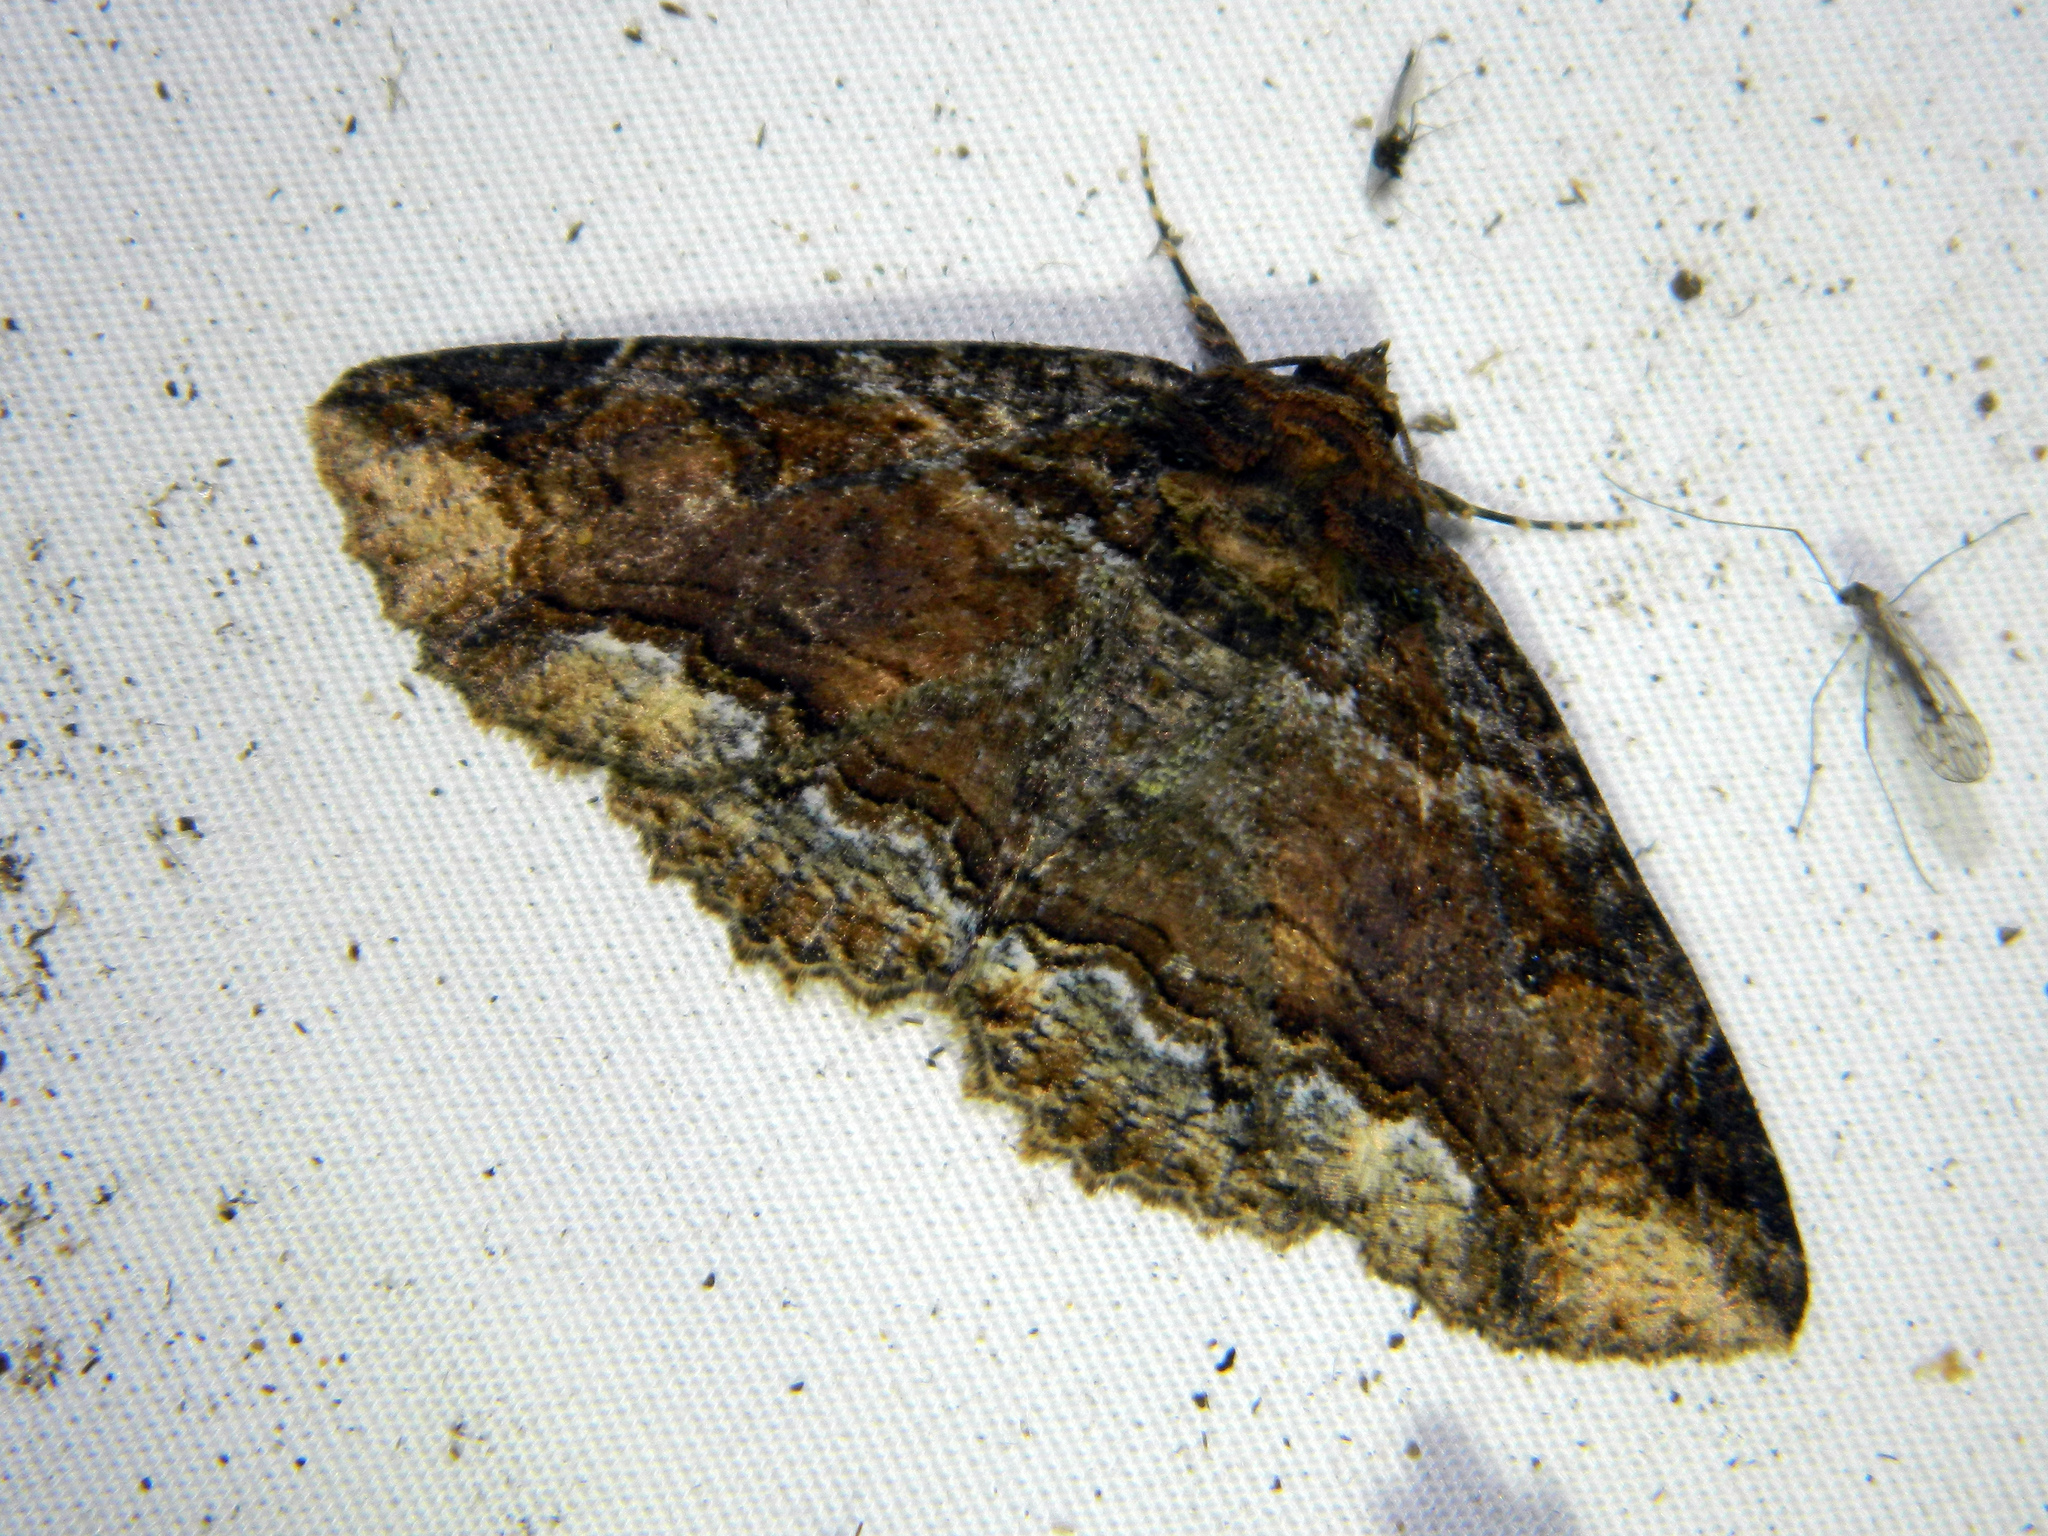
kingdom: Animalia
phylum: Arthropoda
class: Insecta
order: Lepidoptera
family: Erebidae
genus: Zale
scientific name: Zale minerea
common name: Colorful zale moth
